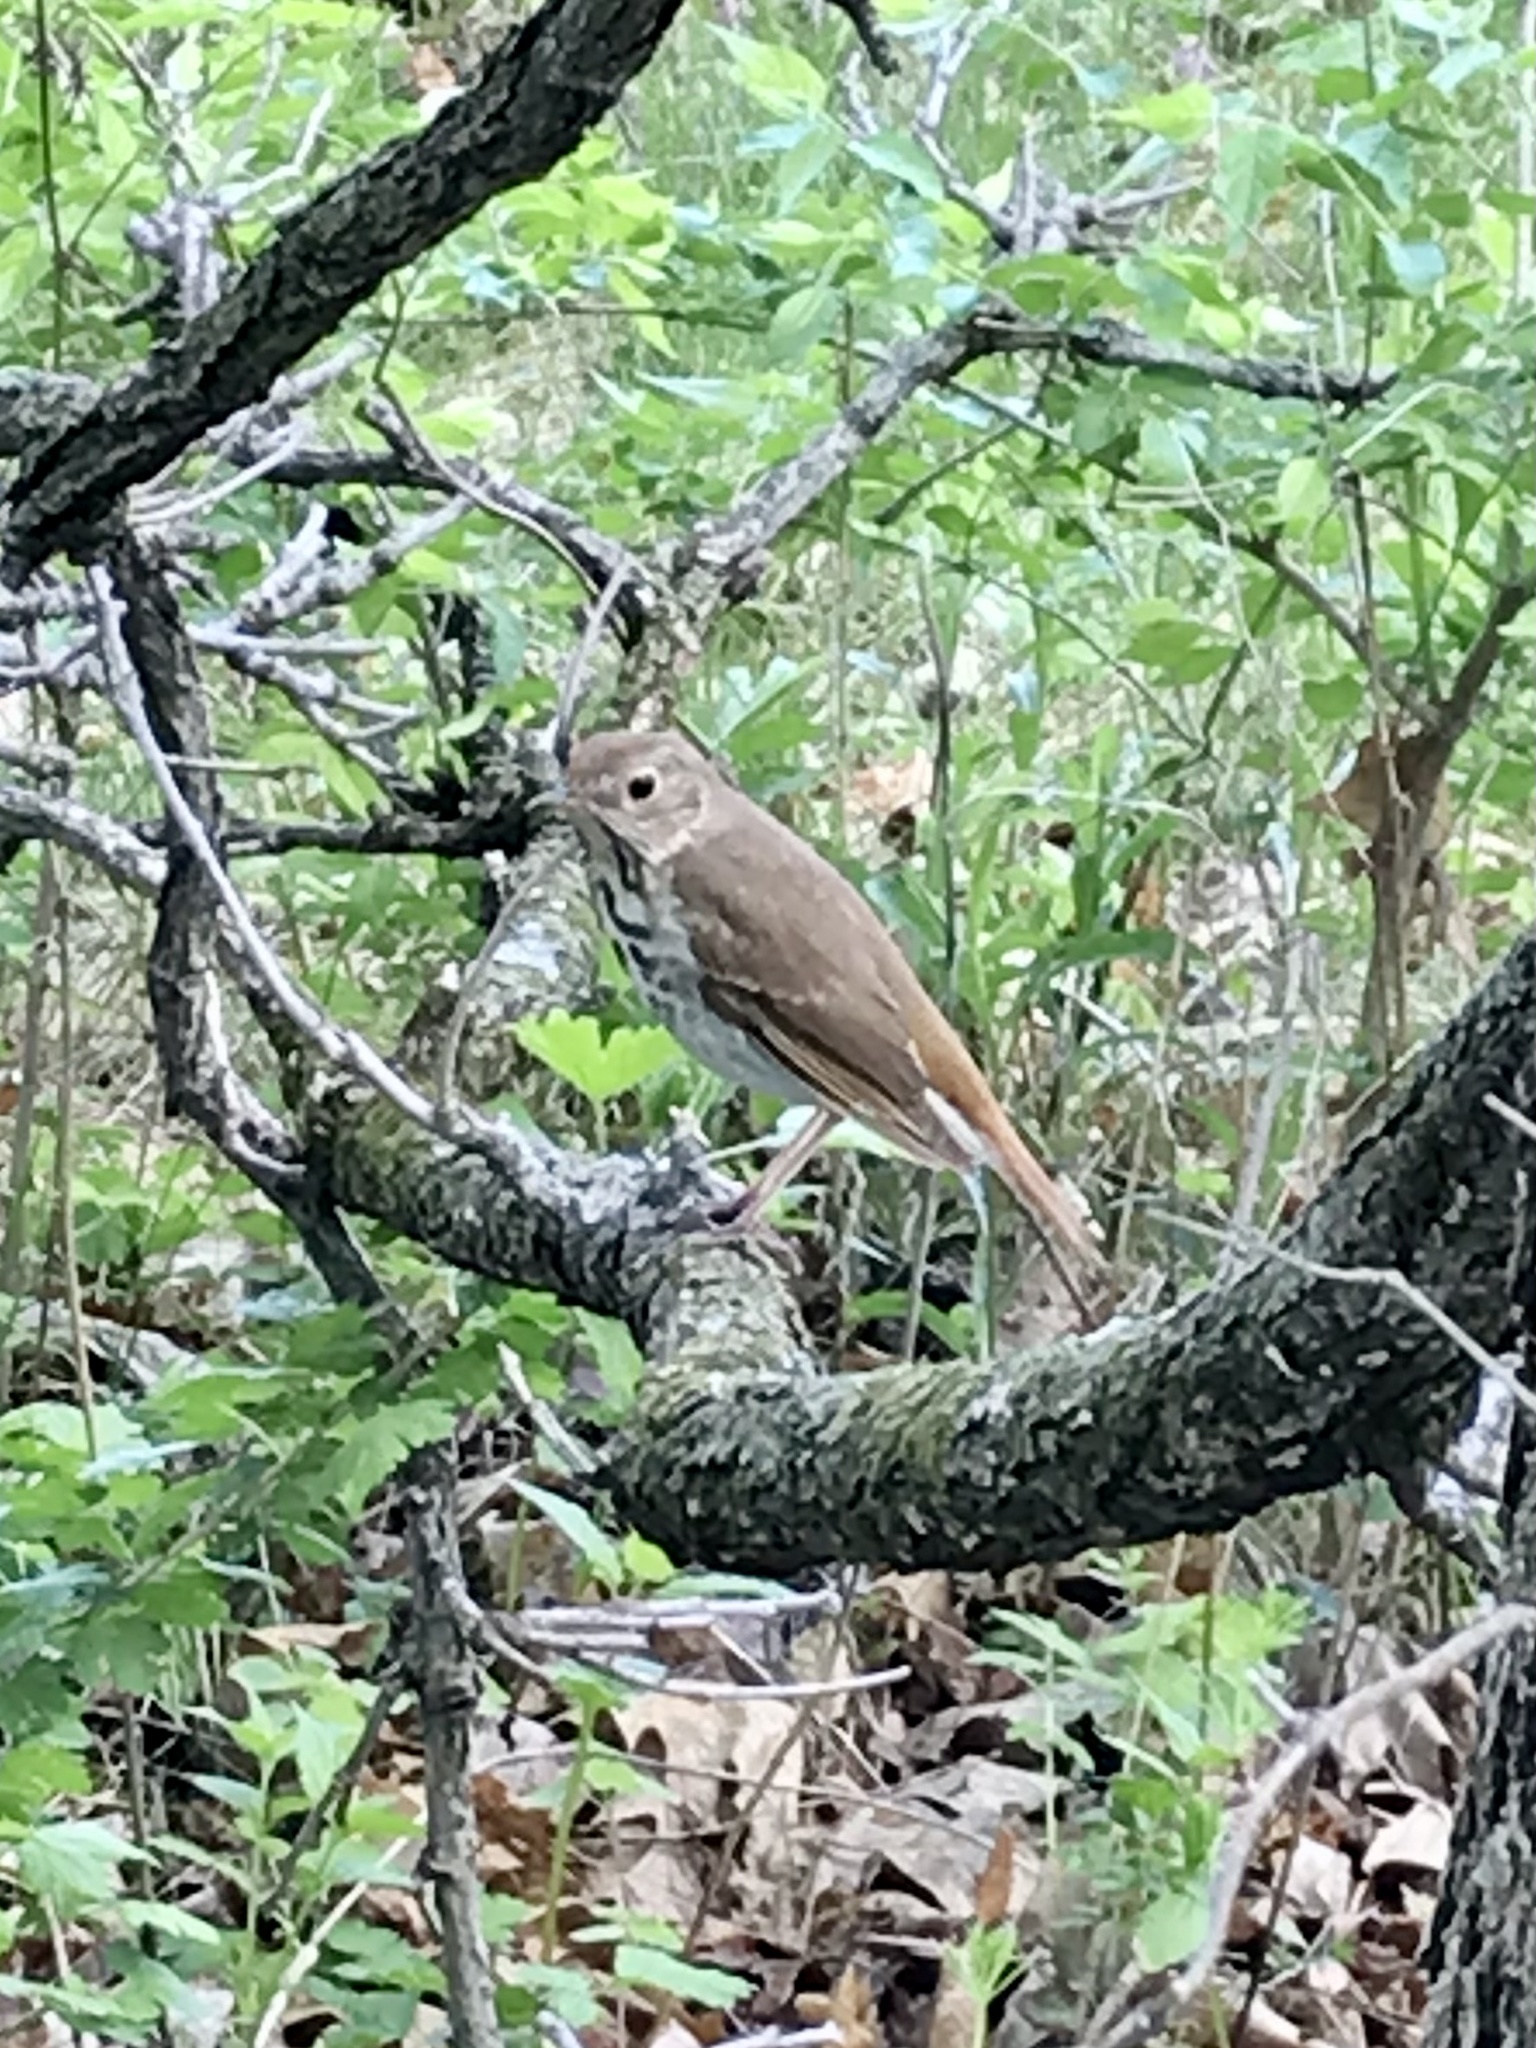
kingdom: Animalia
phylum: Chordata
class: Aves
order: Passeriformes
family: Turdidae
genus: Catharus
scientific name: Catharus guttatus
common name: Hermit thrush
